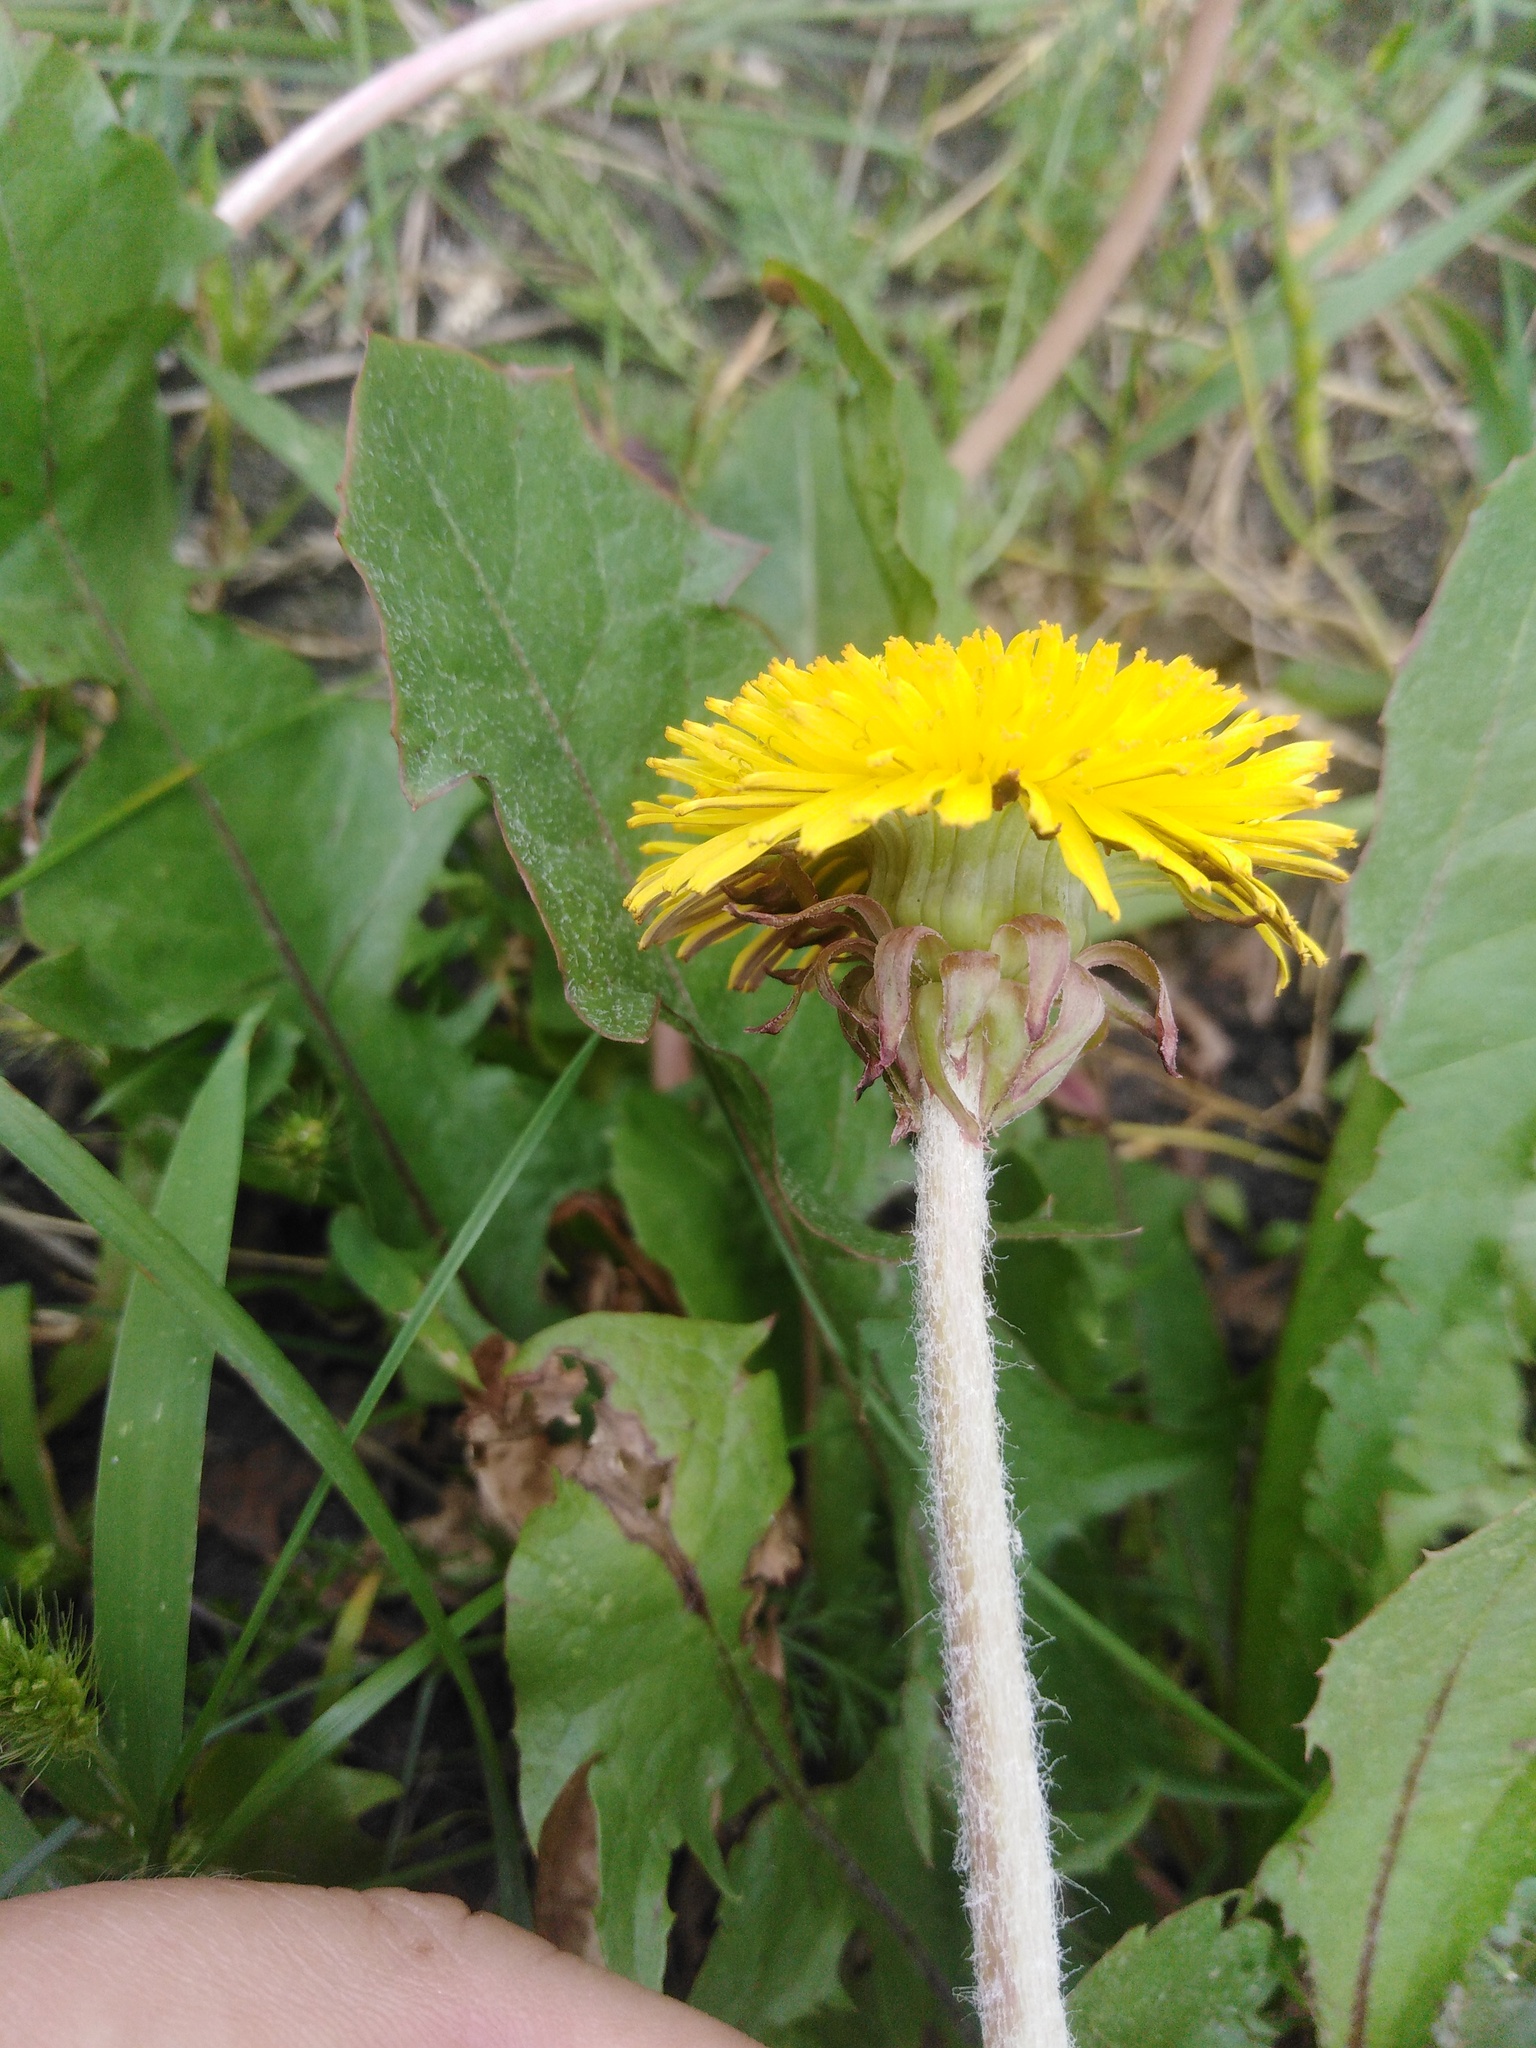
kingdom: Plantae
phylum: Tracheophyta
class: Magnoliopsida
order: Asterales
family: Asteraceae
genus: Taraxacum
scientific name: Taraxacum officinale
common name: Common dandelion
